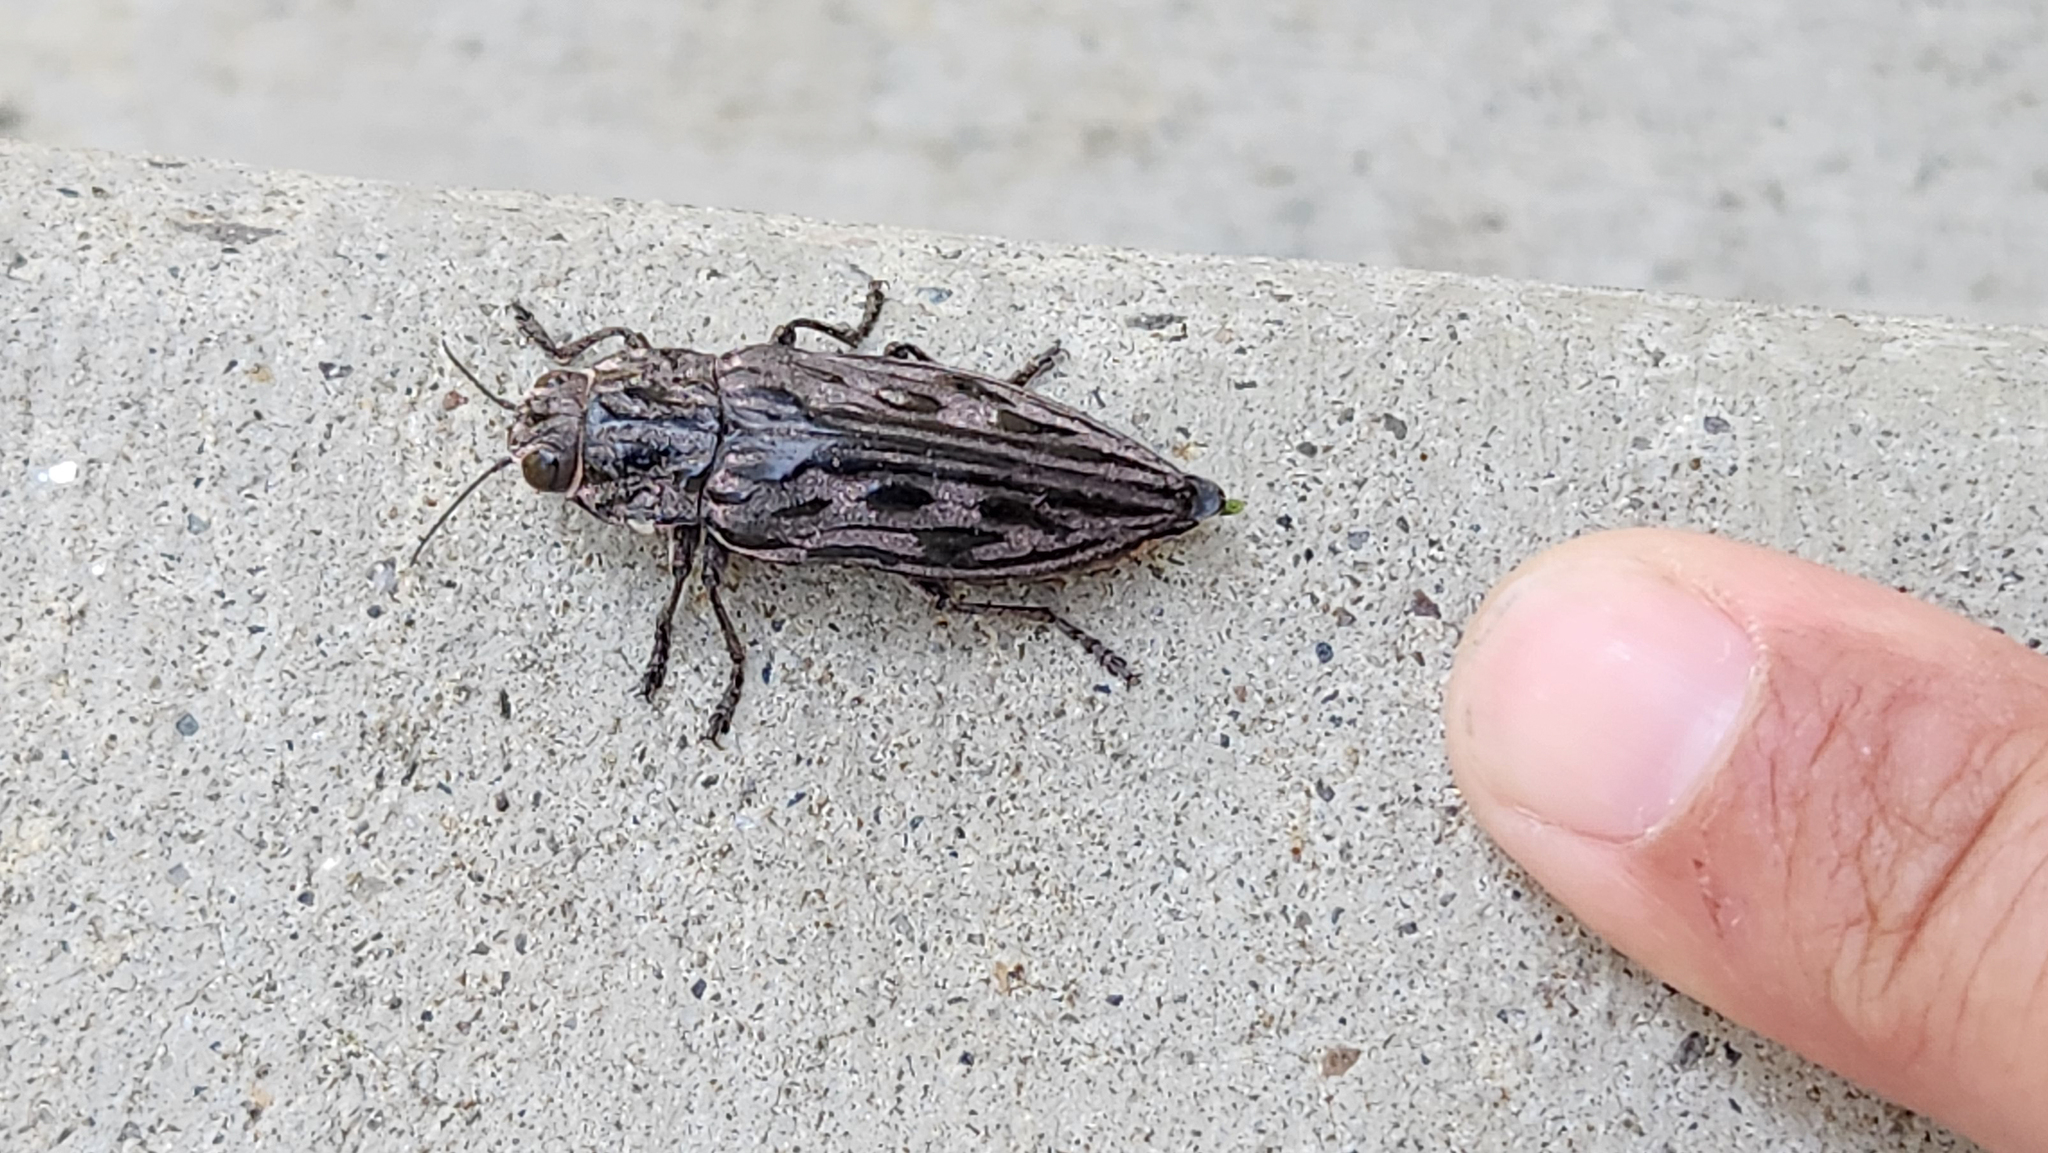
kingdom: Animalia
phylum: Arthropoda
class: Insecta
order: Coleoptera
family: Buprestidae
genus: Chalcophora
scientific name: Chalcophora angulicollis
